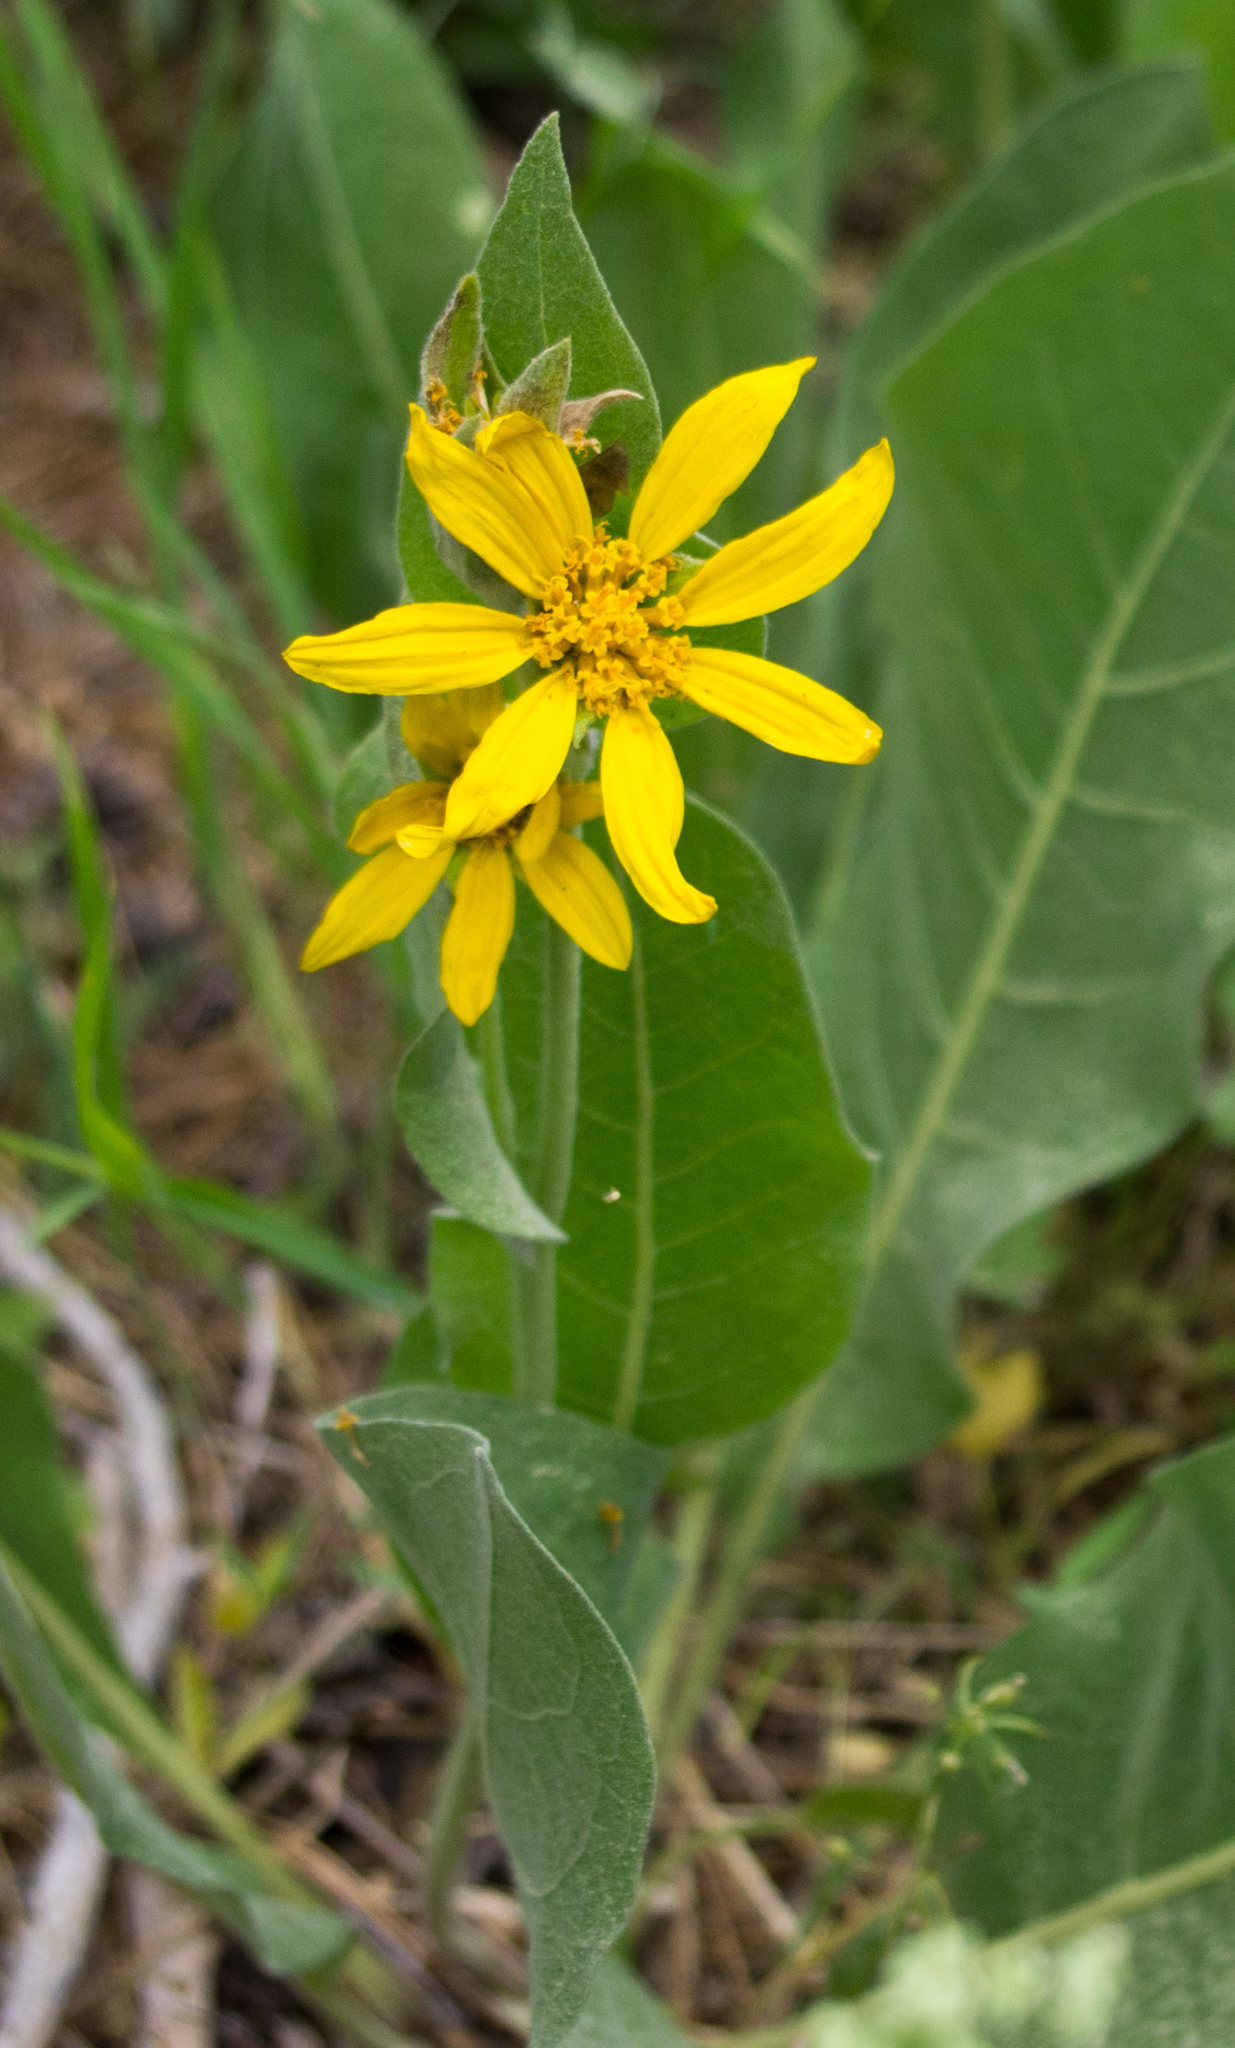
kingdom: Plantae
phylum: Tracheophyta
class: Magnoliopsida
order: Asterales
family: Asteraceae
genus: Wyethia
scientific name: Wyethia mollis
